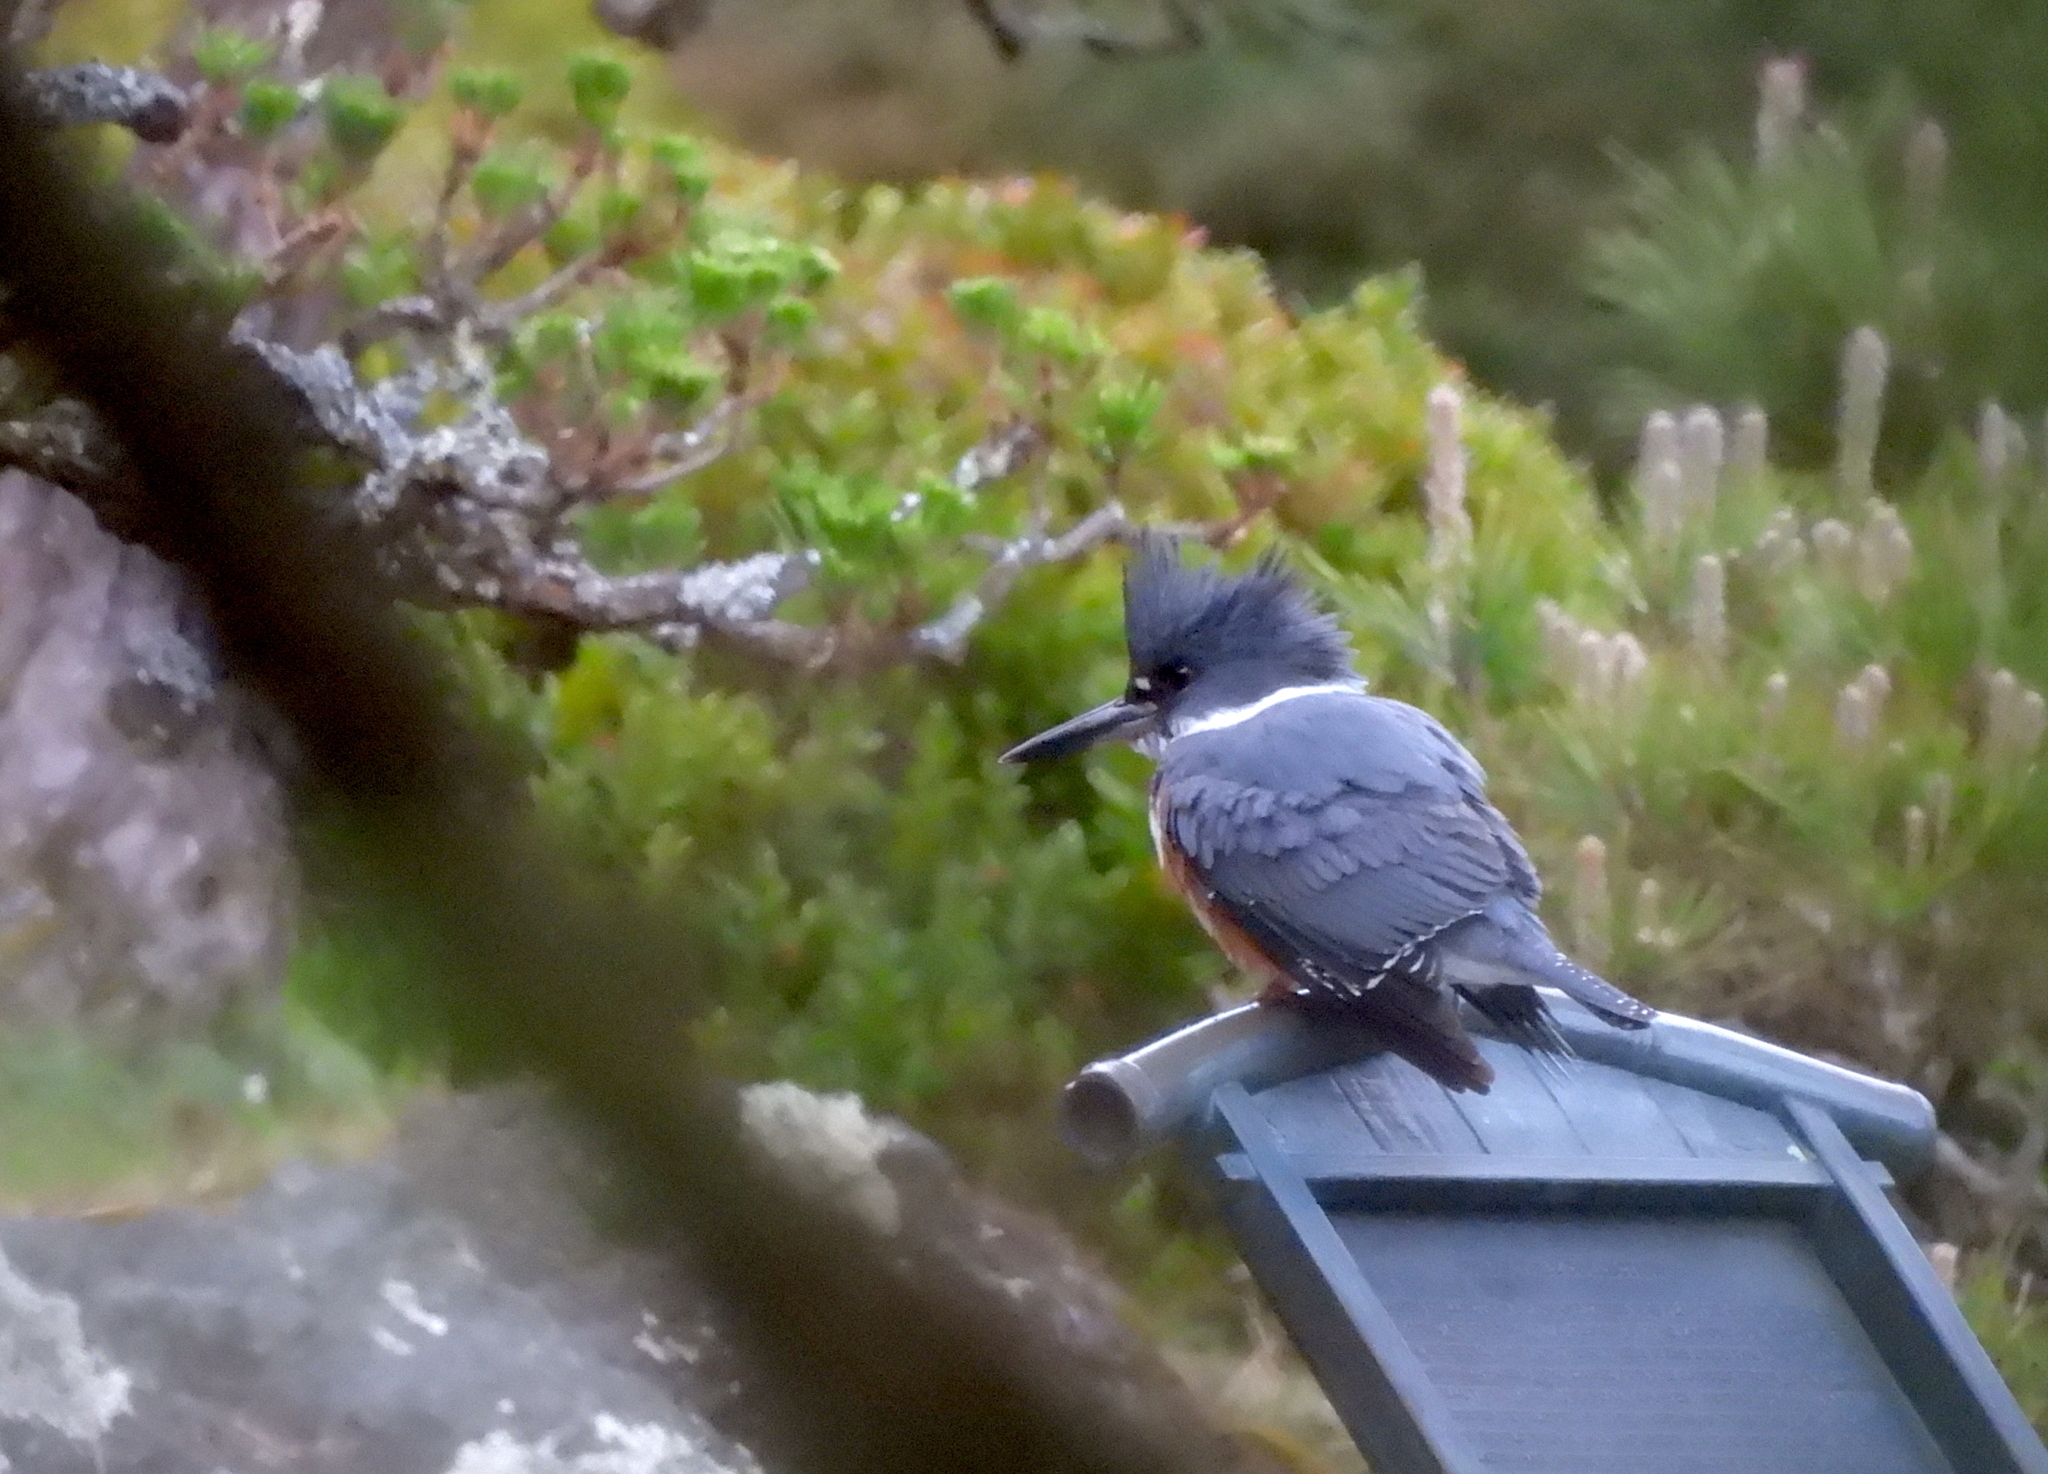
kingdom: Animalia
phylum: Chordata
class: Aves
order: Coraciiformes
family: Alcedinidae
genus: Megaceryle
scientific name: Megaceryle alcyon
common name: Belted kingfisher
